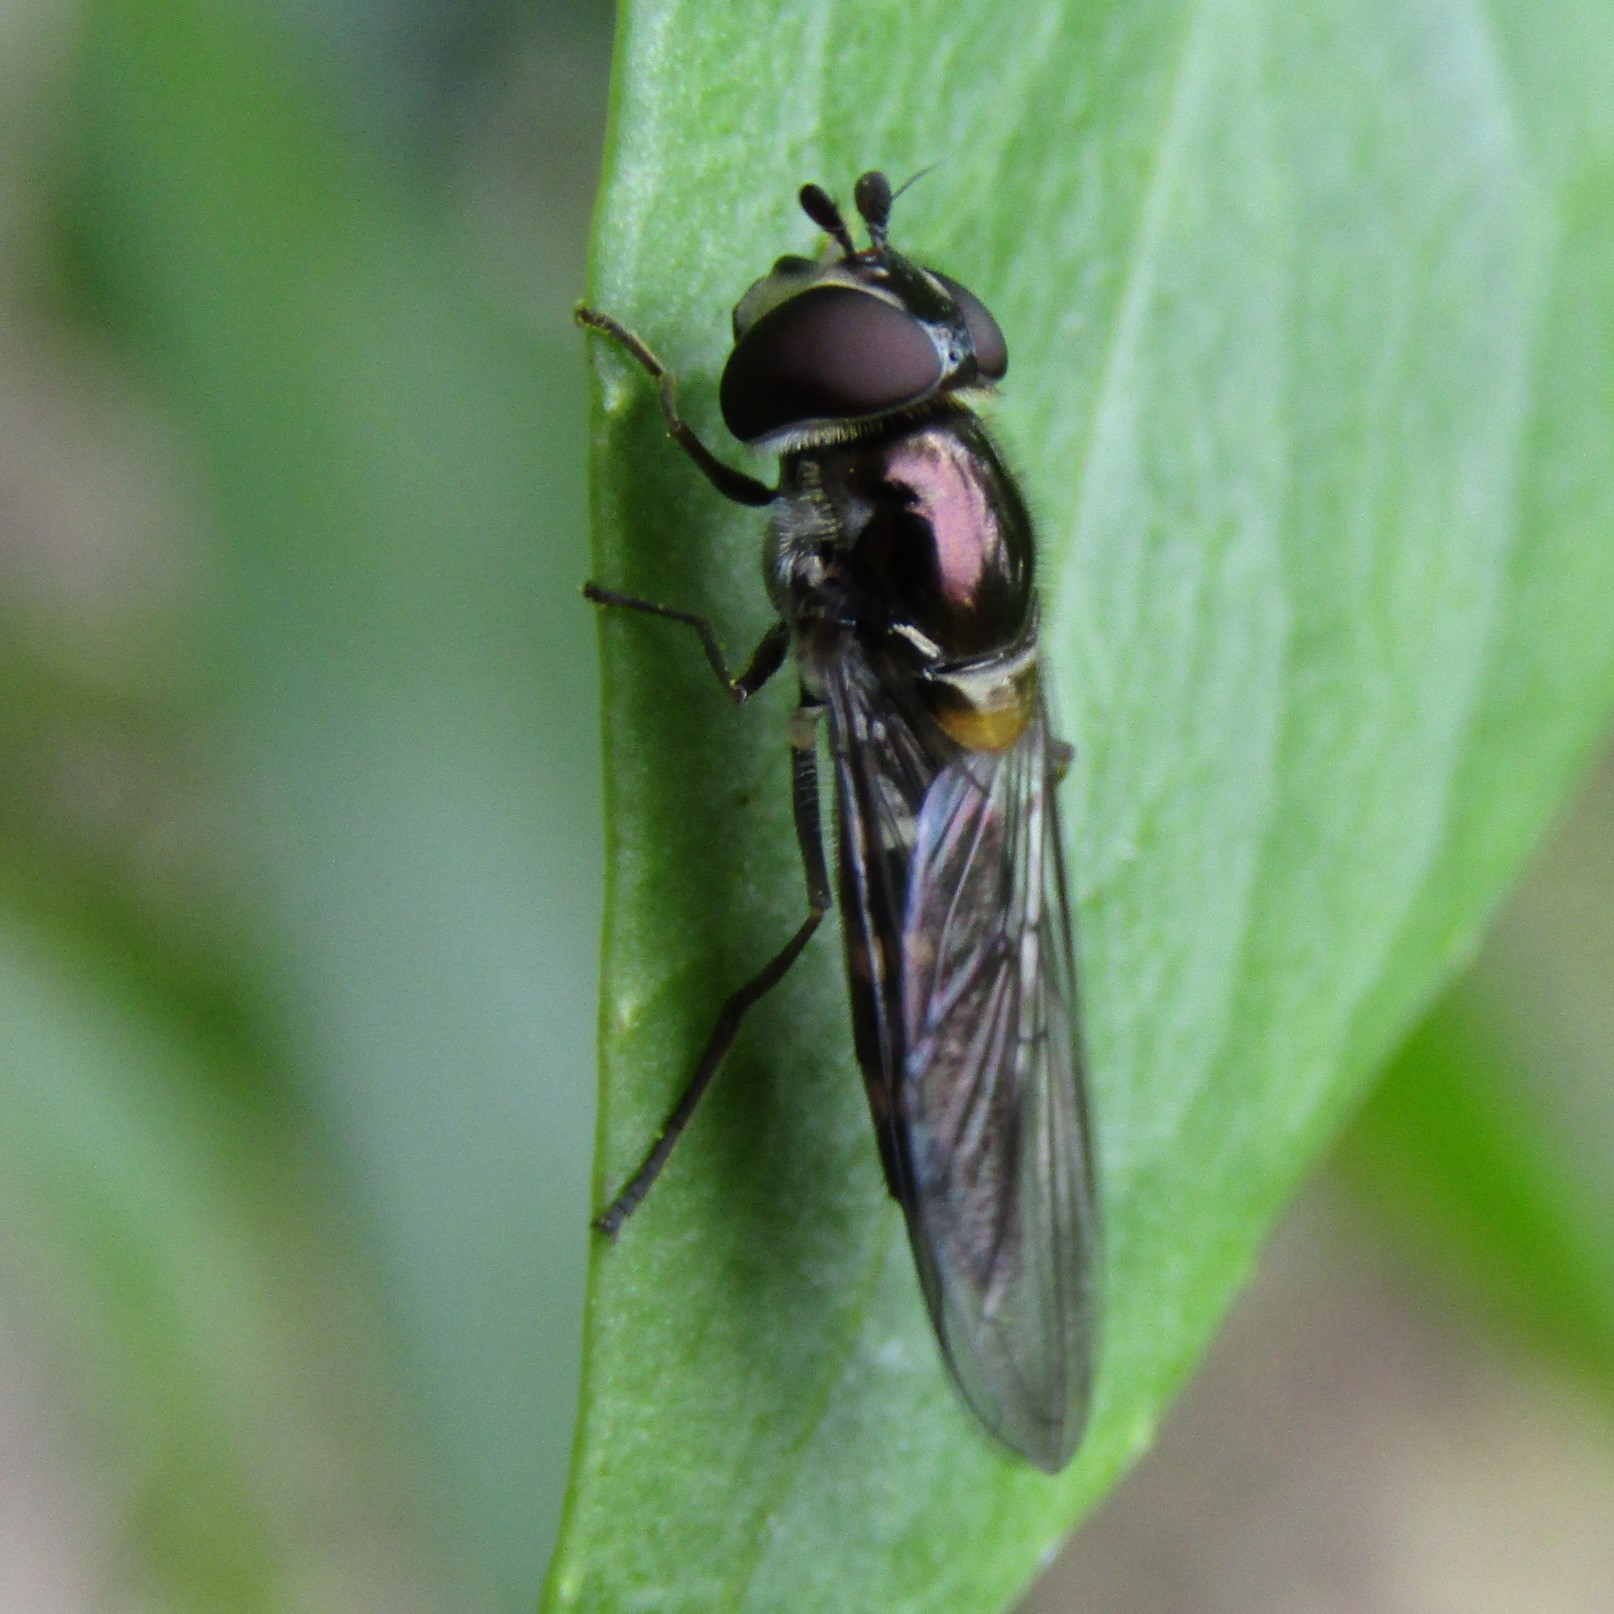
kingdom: Animalia
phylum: Arthropoda
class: Insecta
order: Diptera
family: Syrphidae
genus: Melangyna
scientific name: Melangyna novaezelandiae
